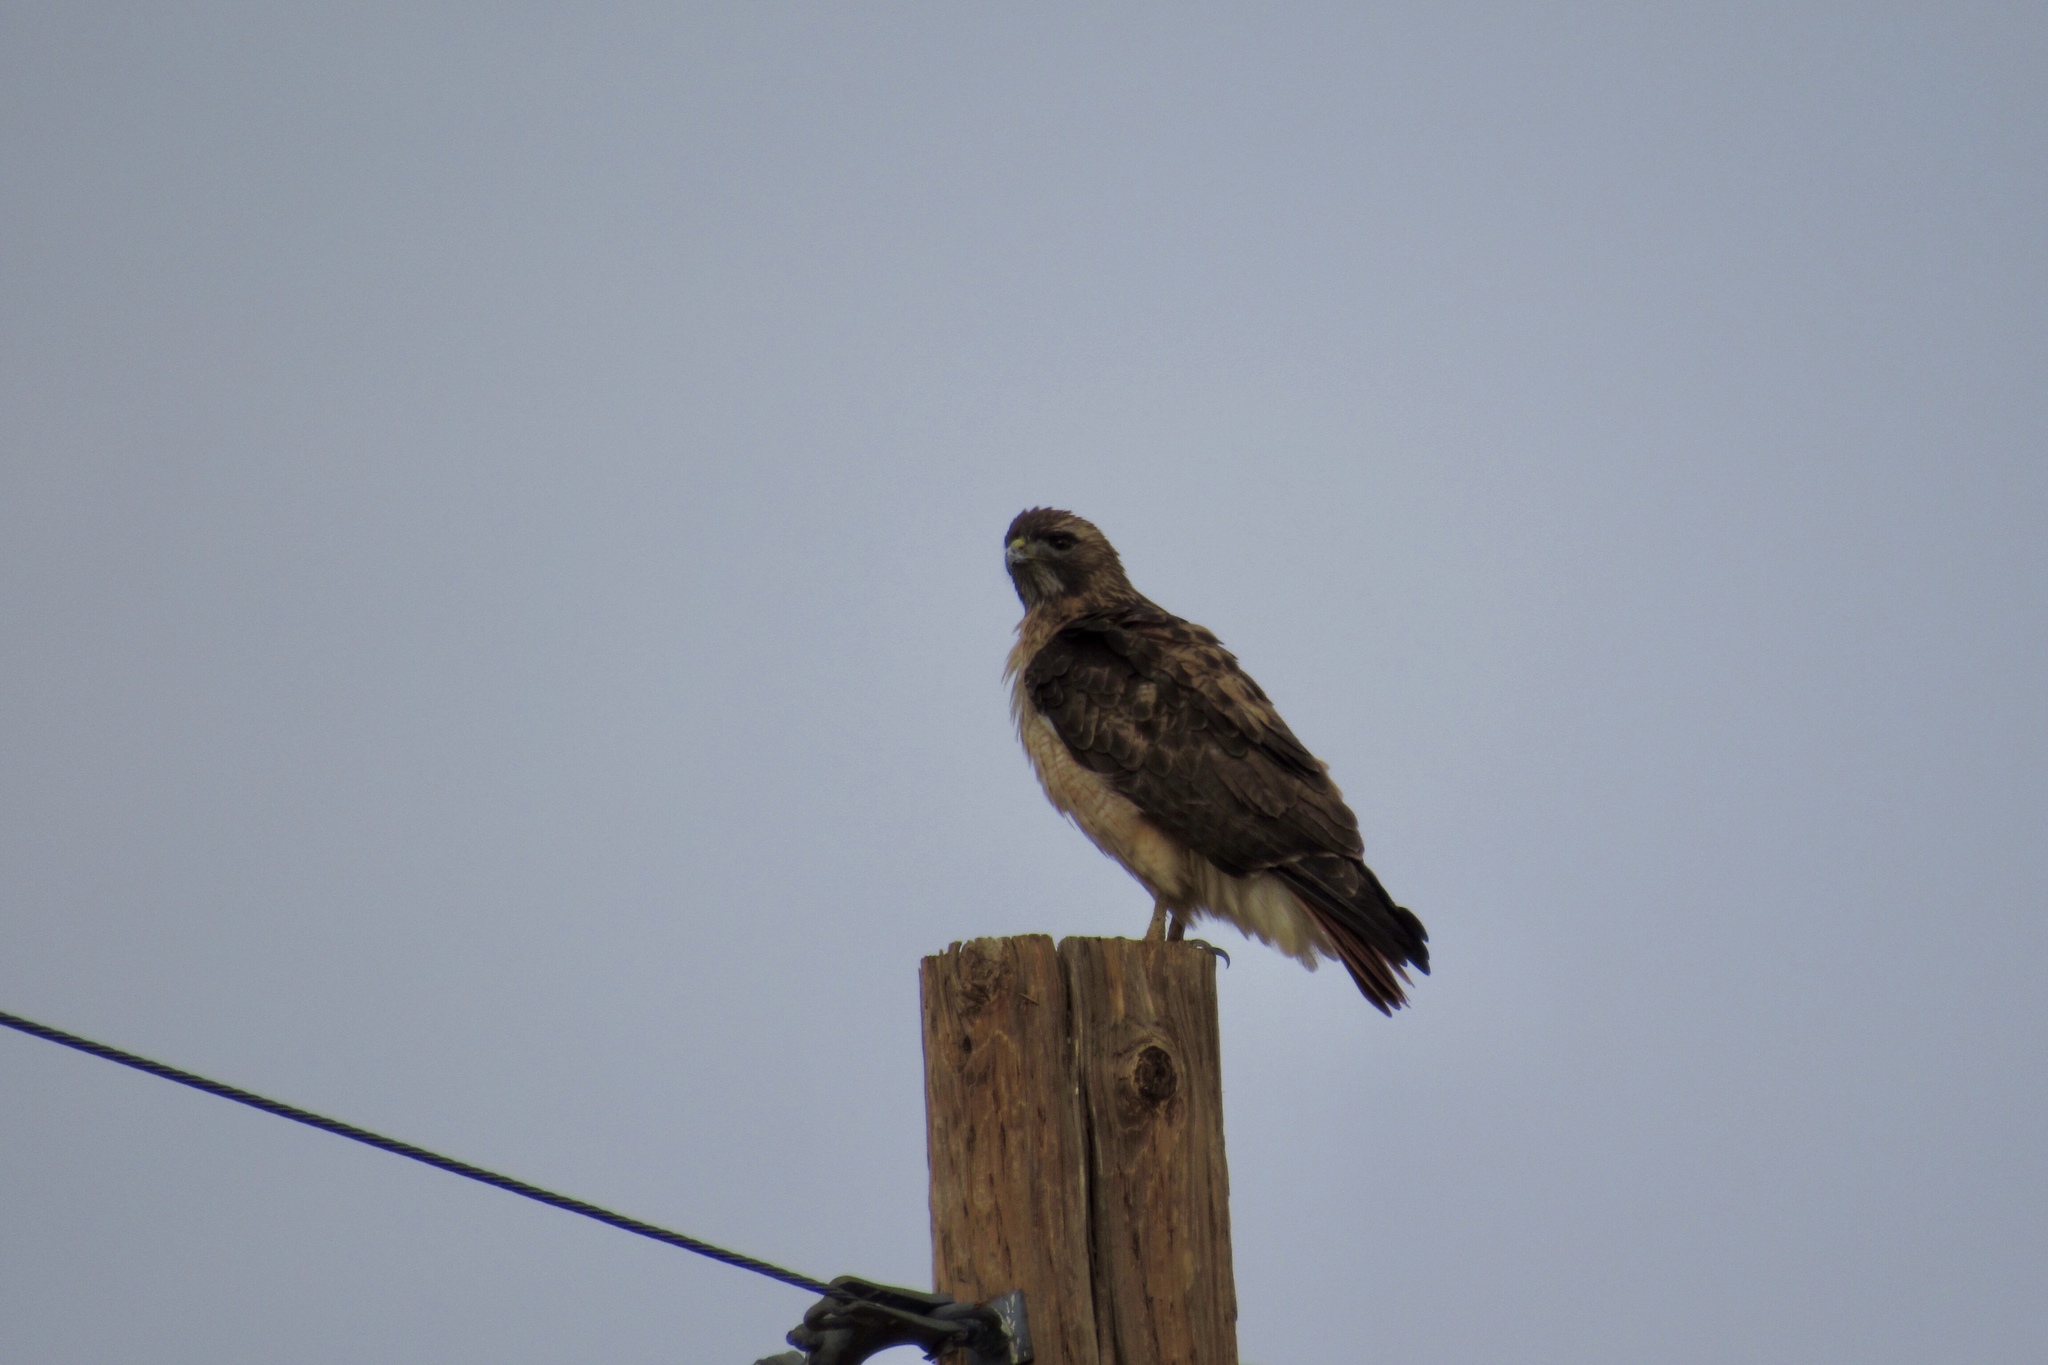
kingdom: Animalia
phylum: Chordata
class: Aves
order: Accipitriformes
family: Accipitridae
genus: Buteo
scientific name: Buteo jamaicensis
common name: Red-tailed hawk
